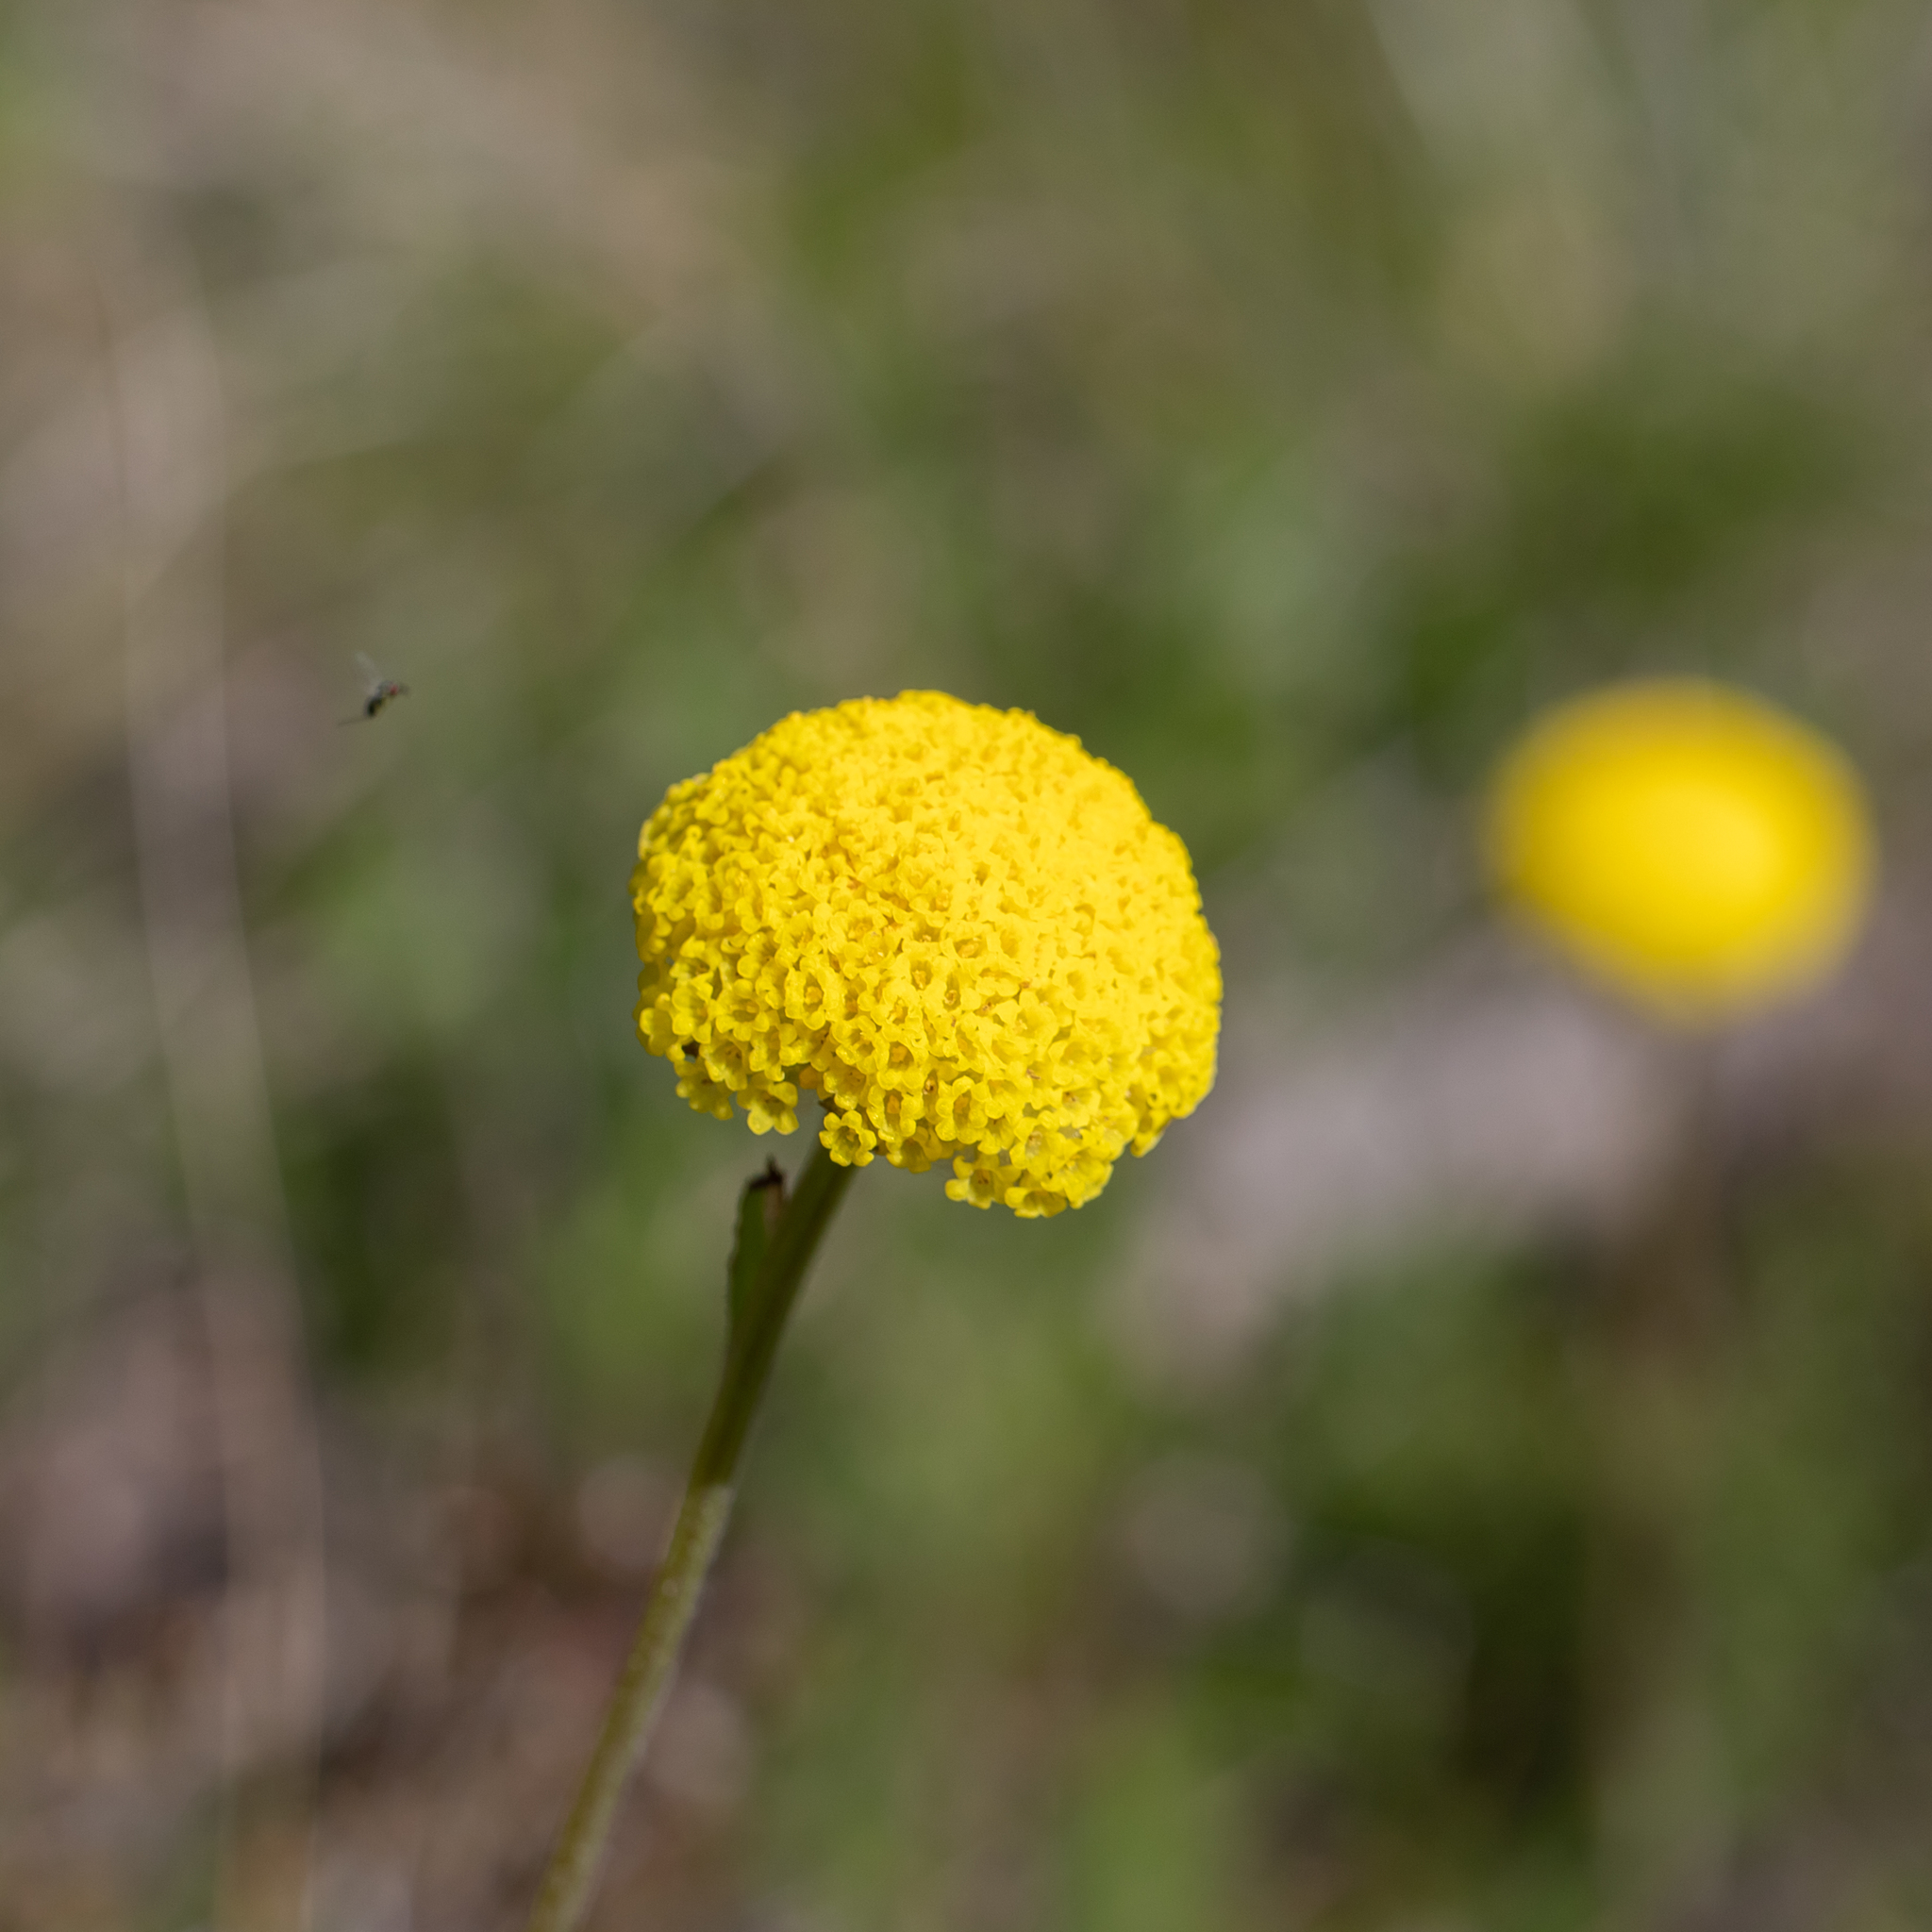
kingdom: Plantae
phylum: Tracheophyta
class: Magnoliopsida
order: Asterales
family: Asteraceae
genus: Craspedia
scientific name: Craspedia variabilis
